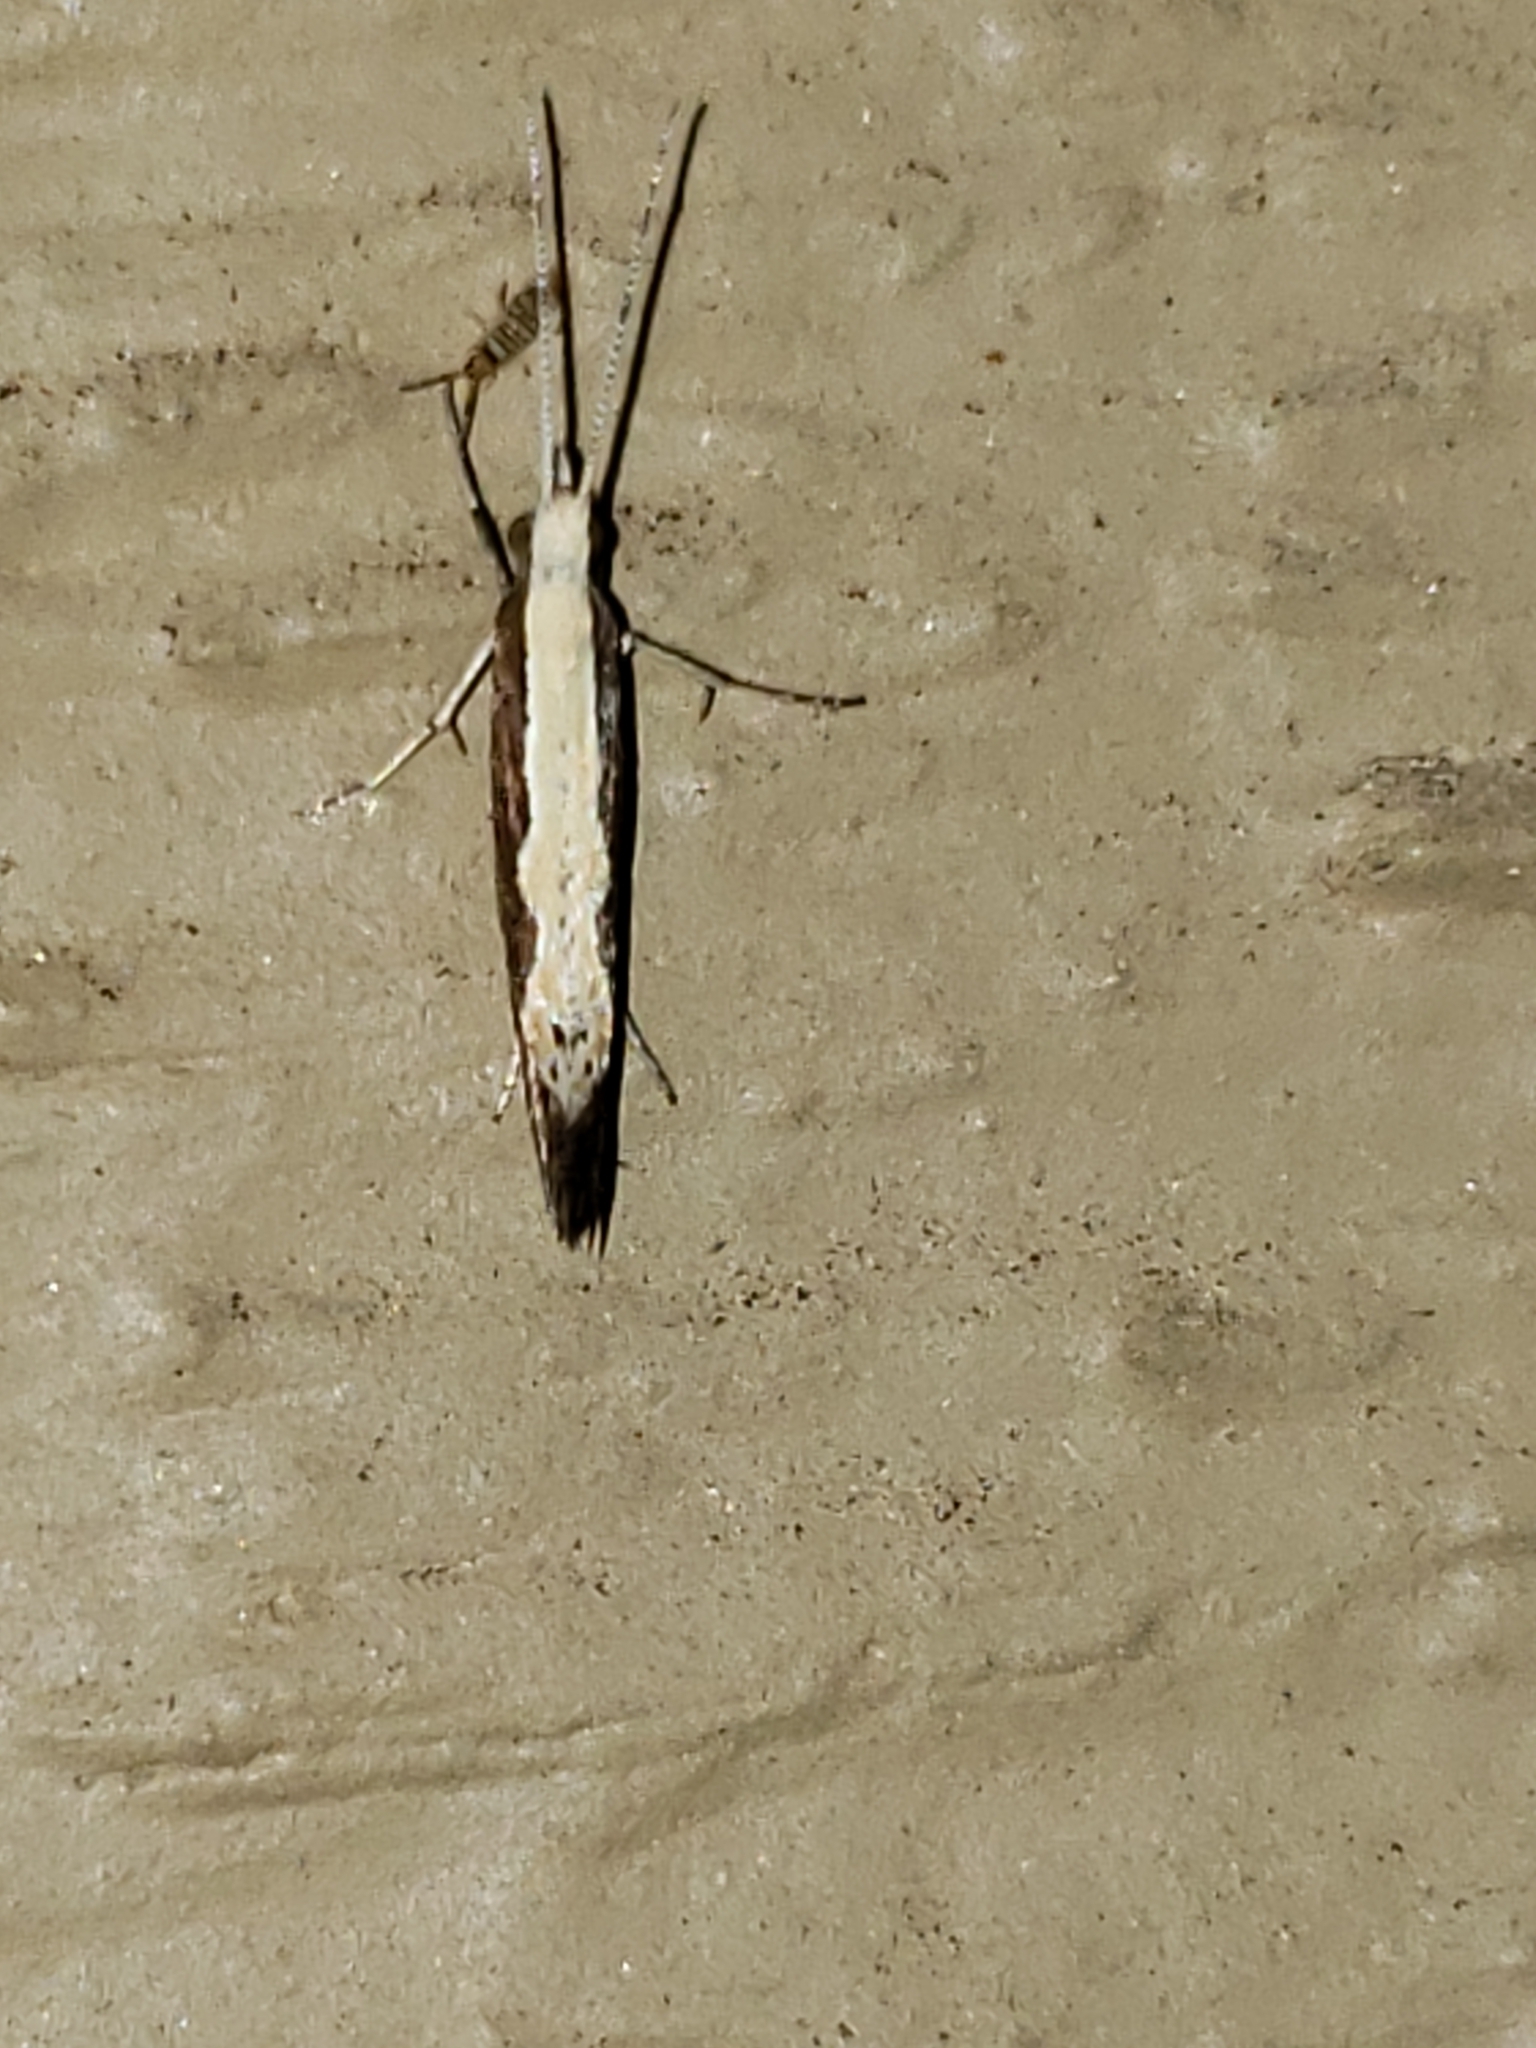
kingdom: Animalia
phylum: Arthropoda
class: Insecta
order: Lepidoptera
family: Plutellidae
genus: Plutella
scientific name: Plutella xylostella
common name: Diamond-back moth
